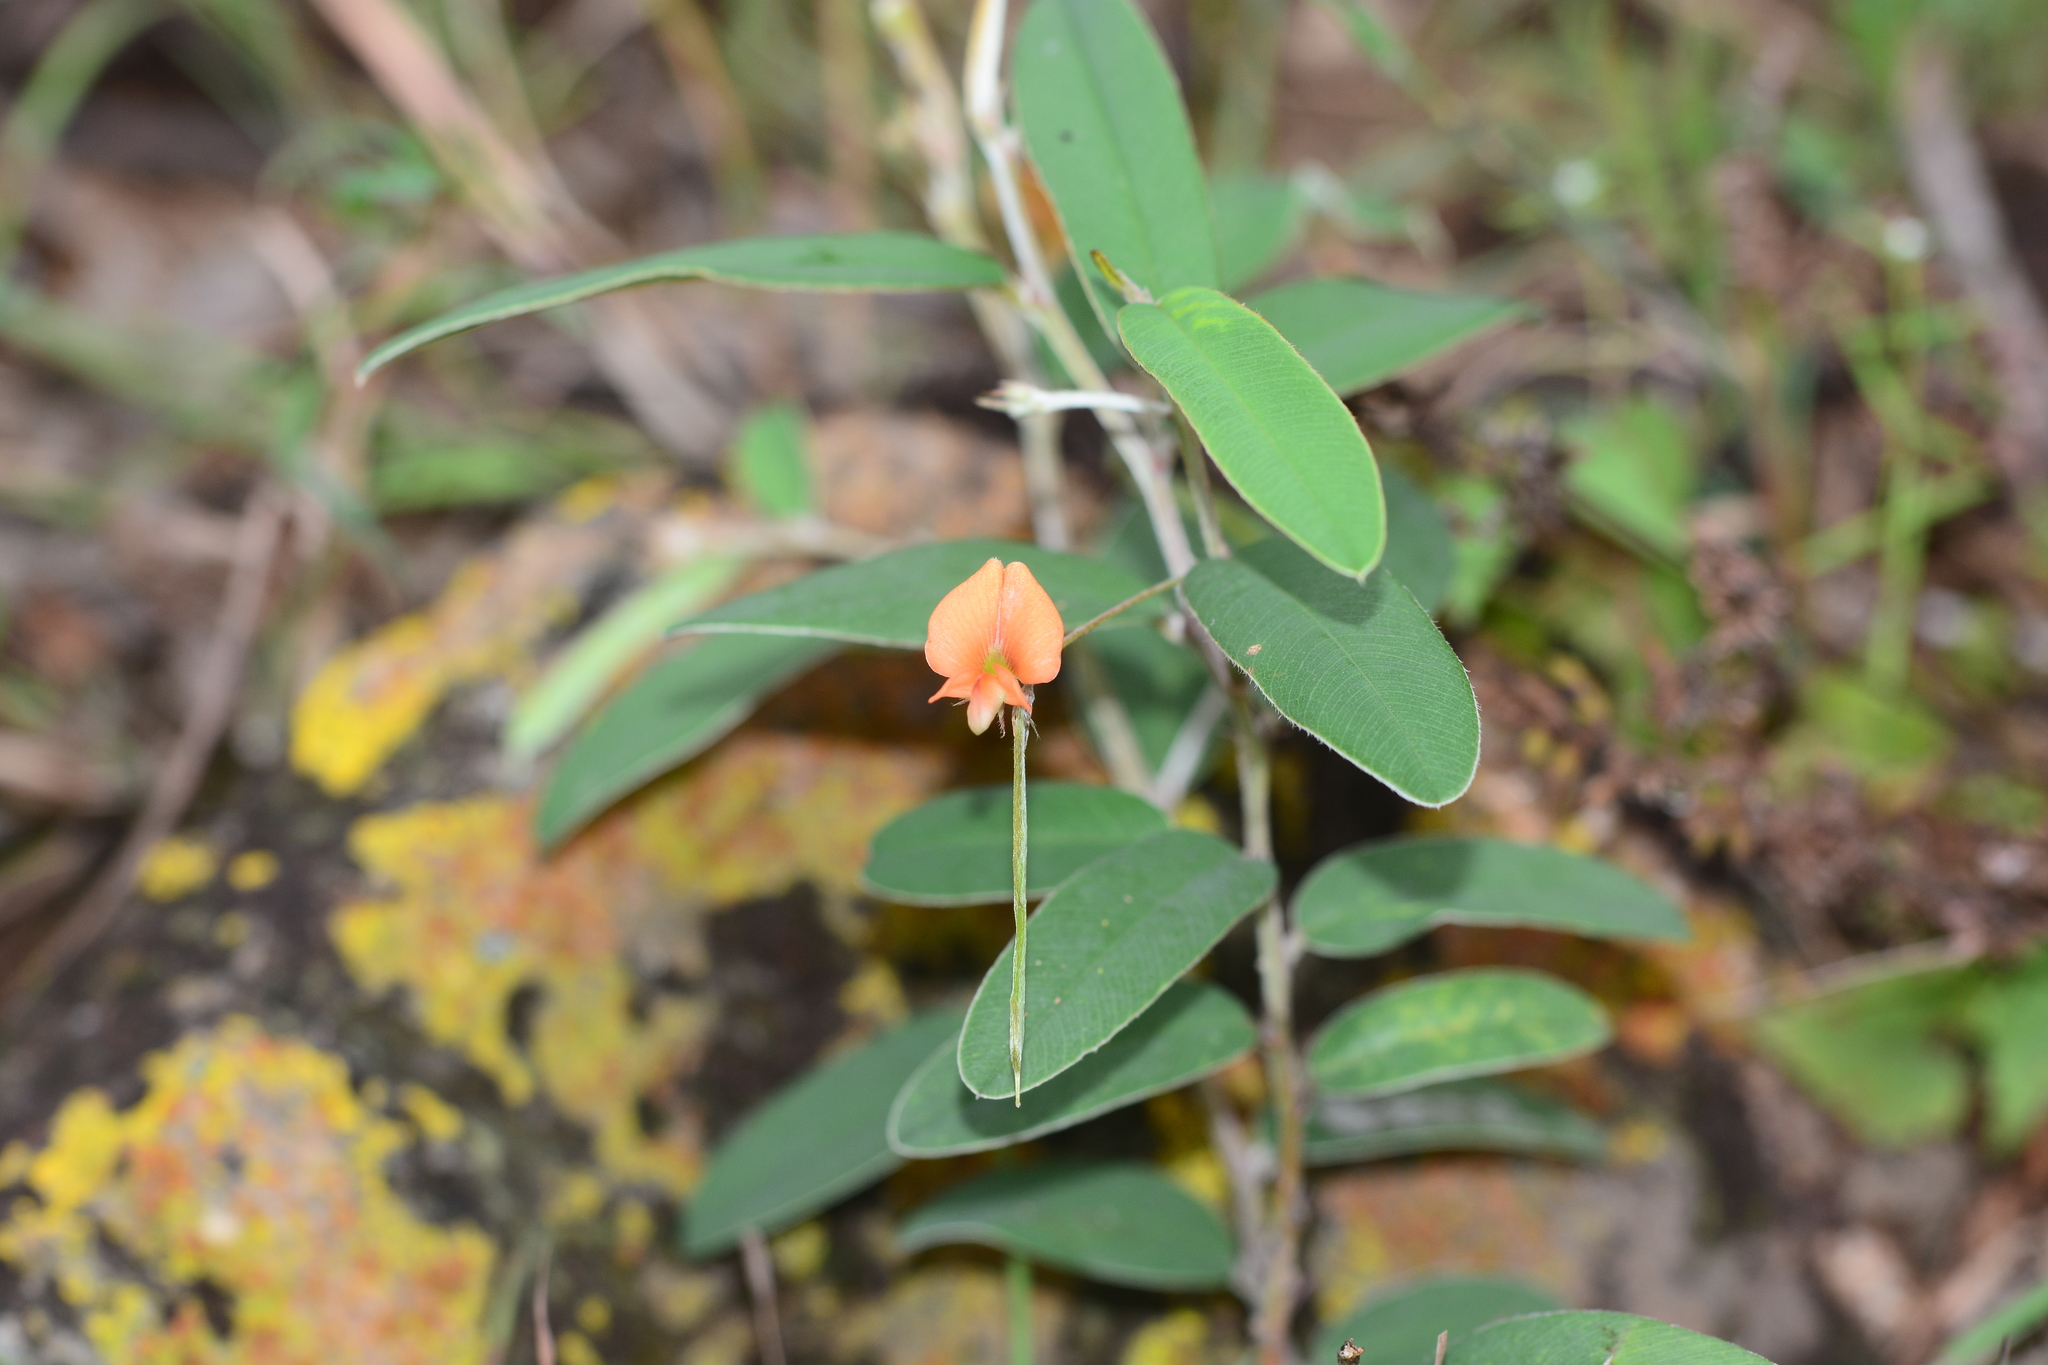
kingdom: Plantae
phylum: Tracheophyta
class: Magnoliopsida
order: Fabales
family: Fabaceae
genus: Tephrosia
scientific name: Tephrosia tinctoria
